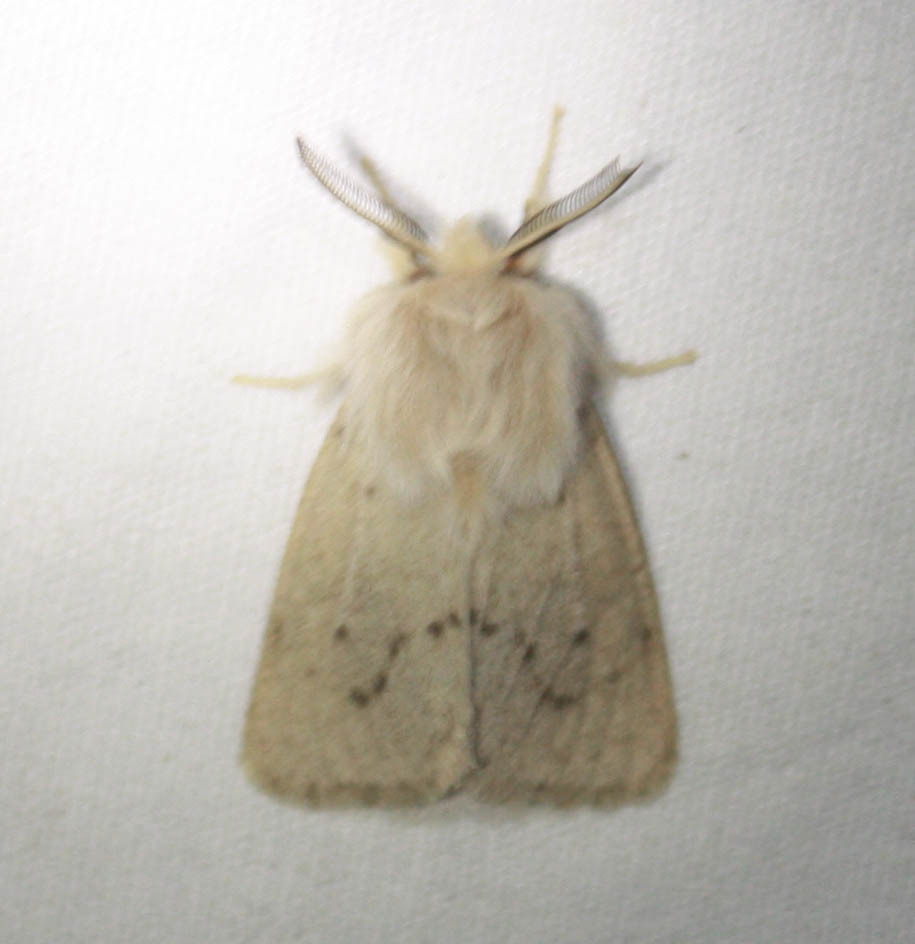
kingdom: Animalia
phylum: Arthropoda
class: Insecta
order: Lepidoptera
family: Erebidae
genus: Spilosoma
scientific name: Spilosoma vagans
